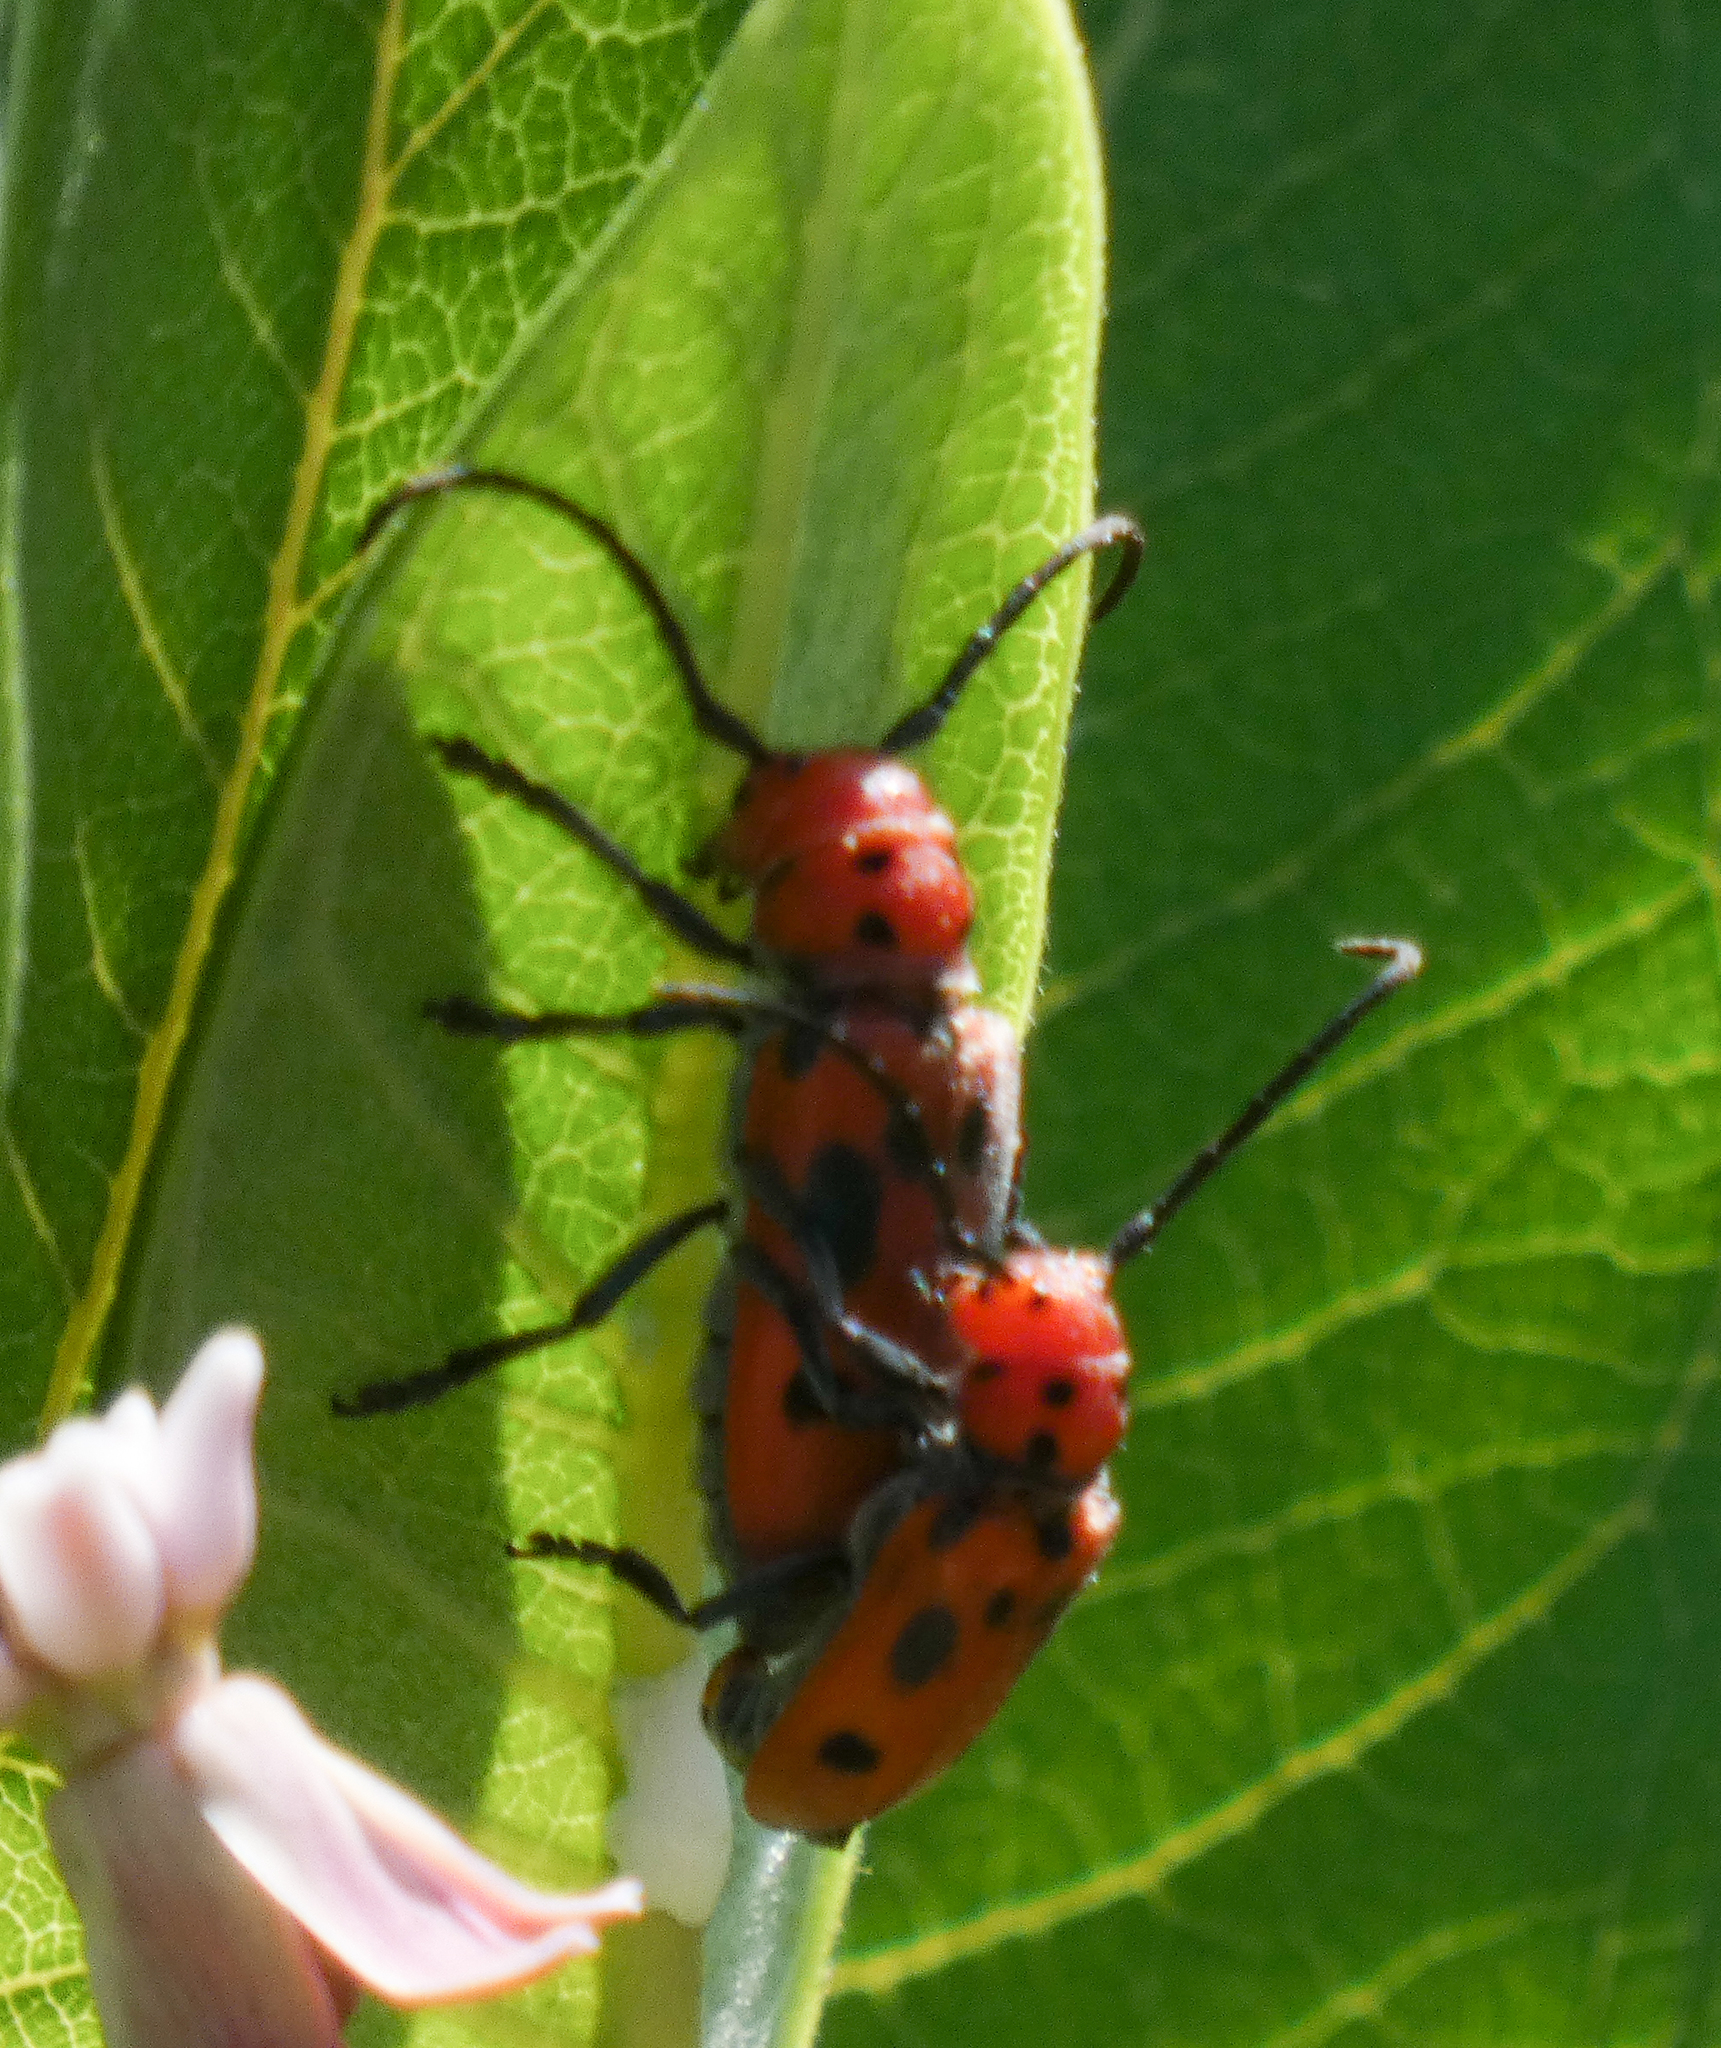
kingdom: Animalia
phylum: Arthropoda
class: Insecta
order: Coleoptera
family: Cerambycidae
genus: Tetraopes
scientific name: Tetraopes tetrophthalmus
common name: Red milkweed beetle
